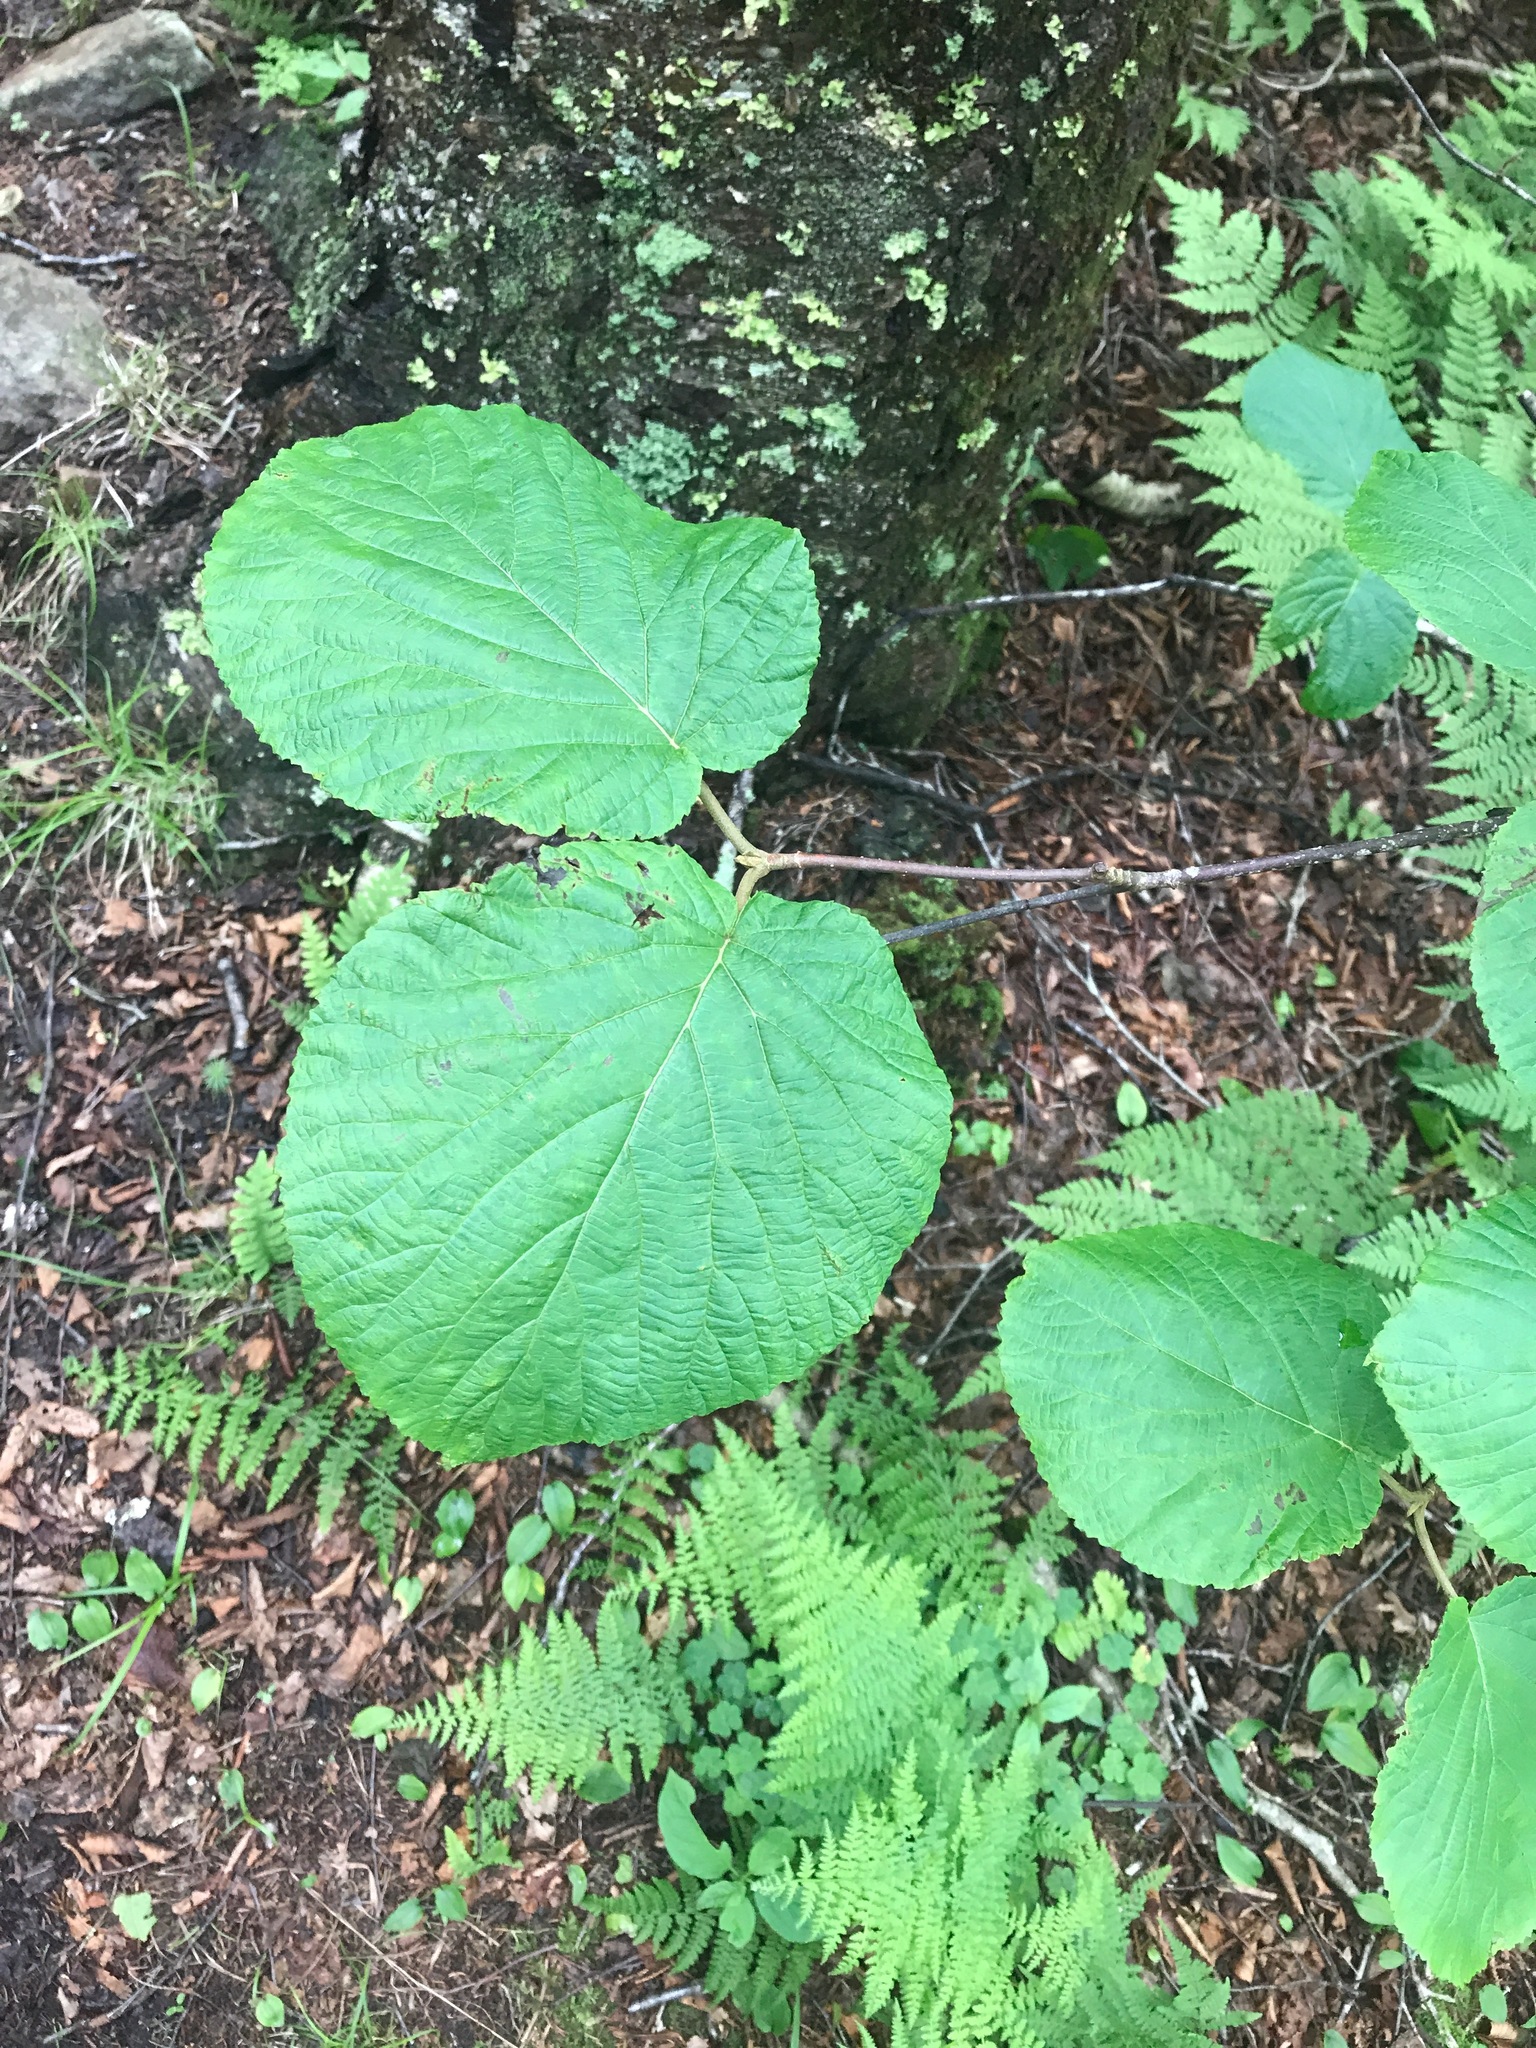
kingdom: Plantae
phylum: Tracheophyta
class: Magnoliopsida
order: Dipsacales
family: Viburnaceae
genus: Viburnum
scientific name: Viburnum lantanoides
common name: Hobblebush
